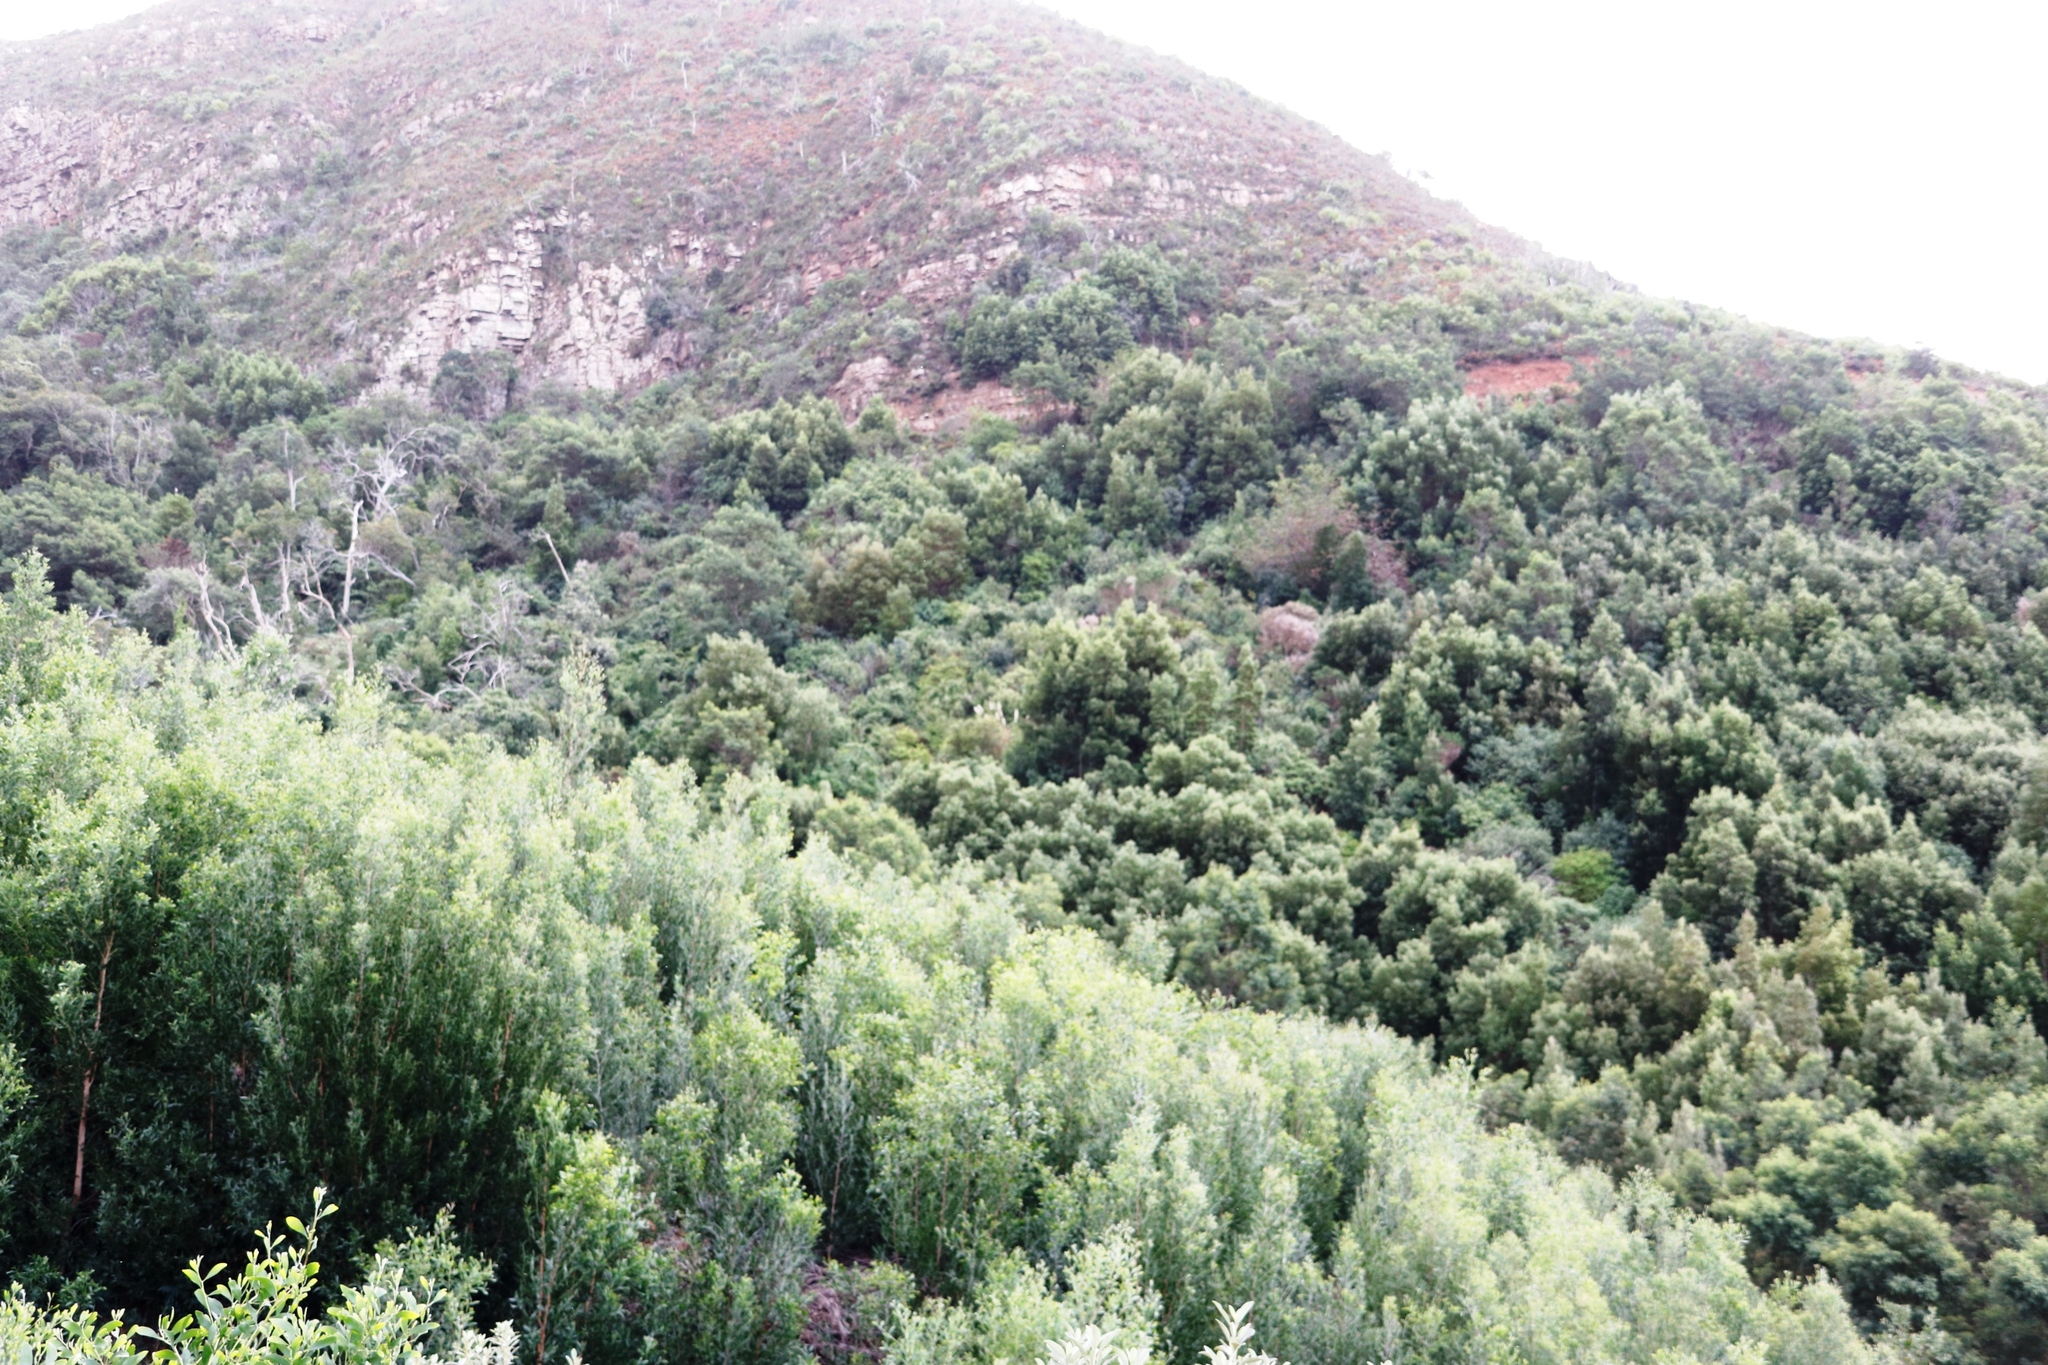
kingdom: Plantae
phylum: Tracheophyta
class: Magnoliopsida
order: Fabales
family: Fabaceae
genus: Acacia
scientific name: Acacia melanoxylon
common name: Blackwood
